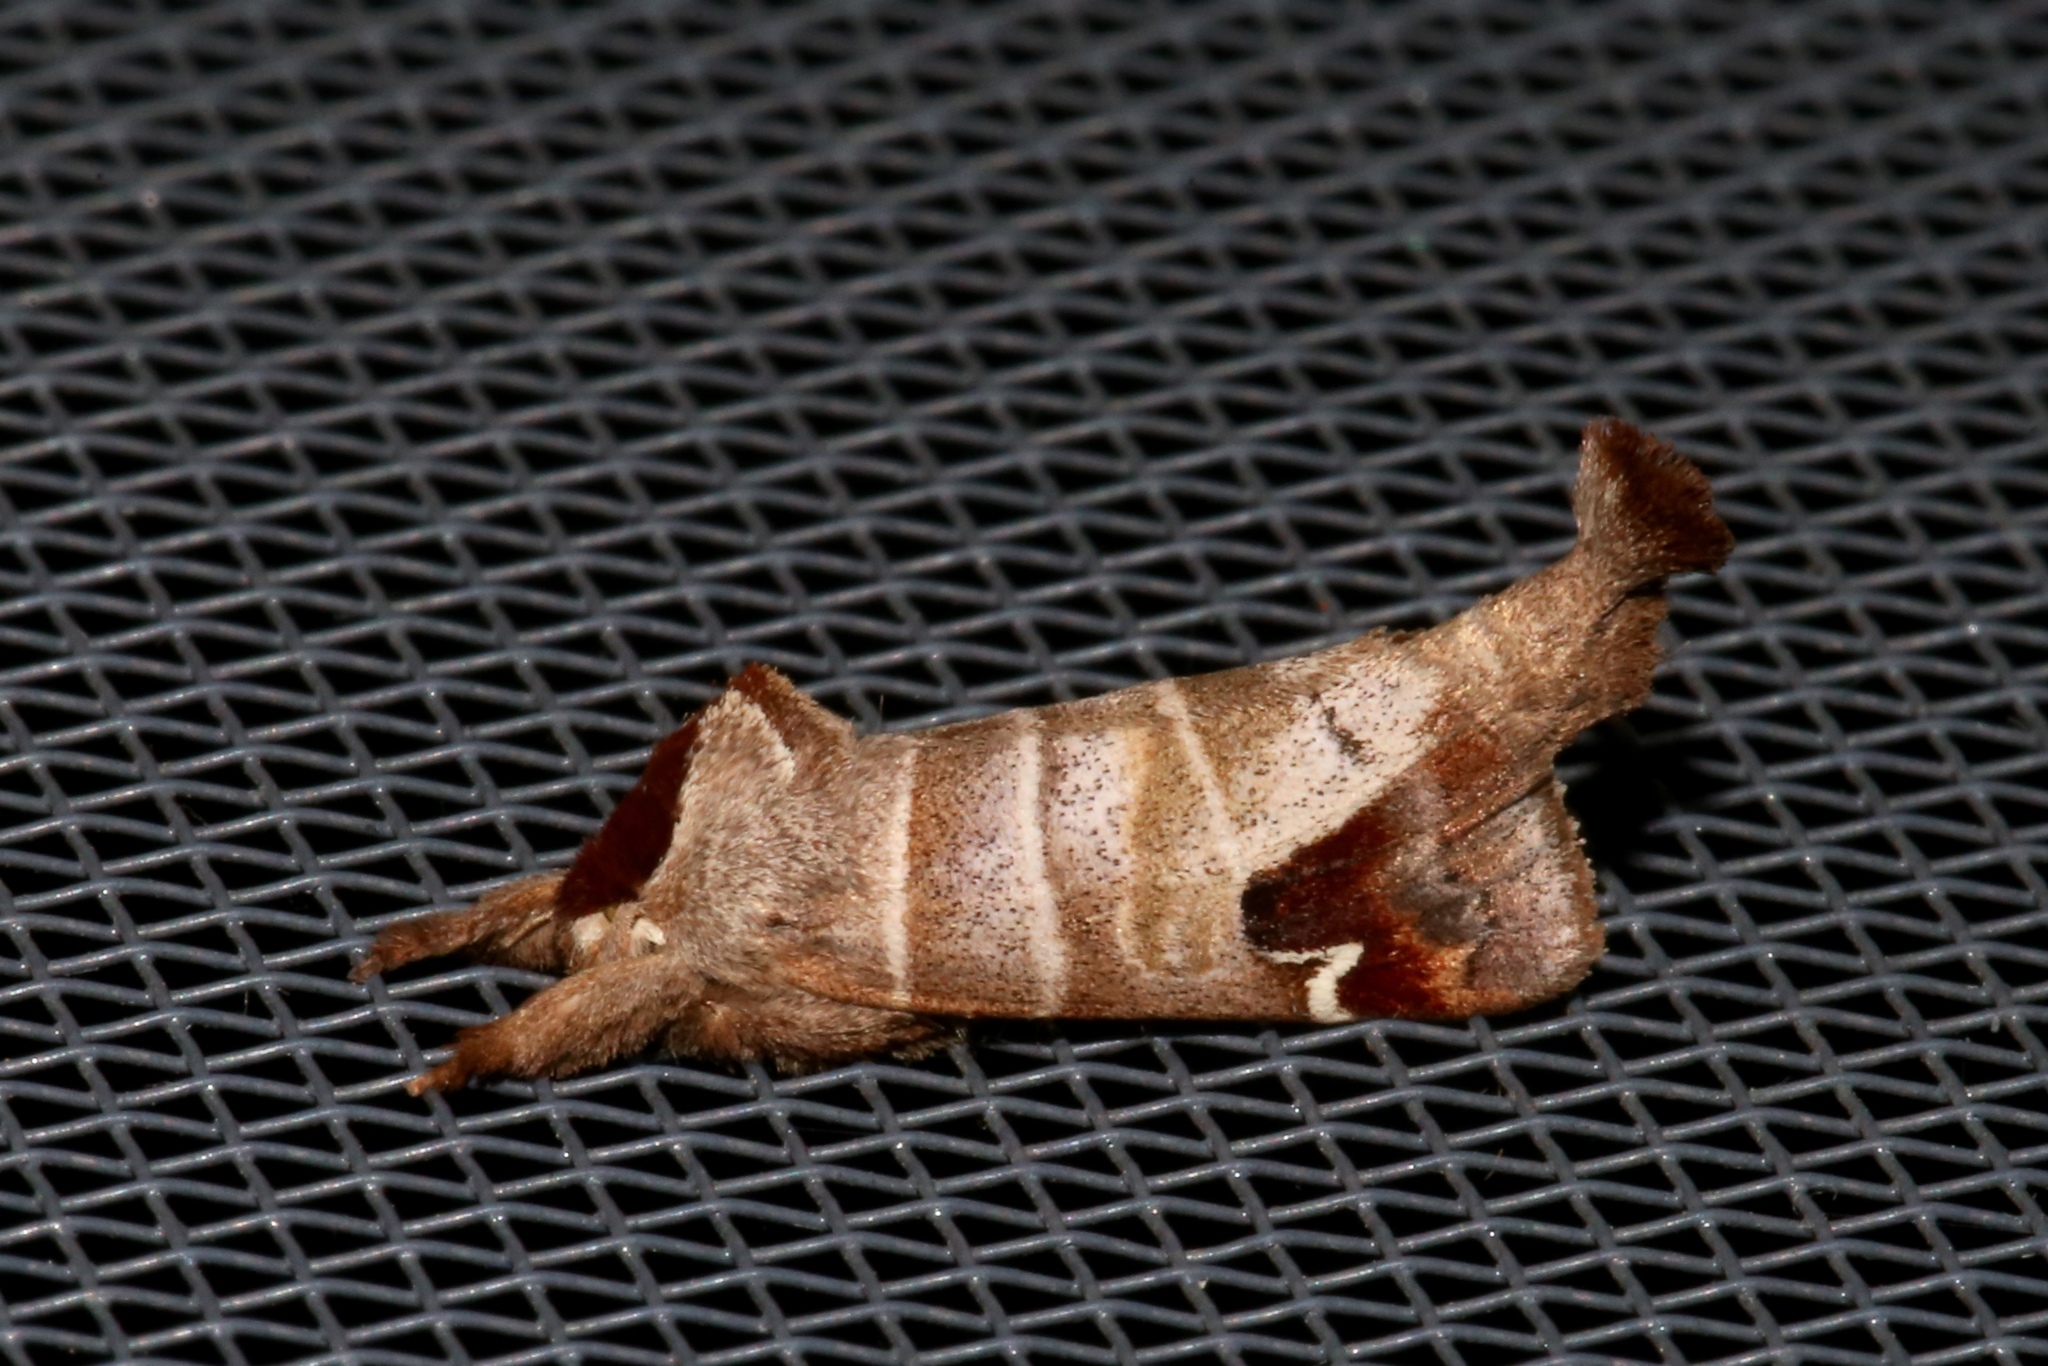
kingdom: Animalia
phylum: Arthropoda
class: Insecta
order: Lepidoptera
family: Notodontidae
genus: Clostera
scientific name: Clostera albosigma
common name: Sigmoid prominent
